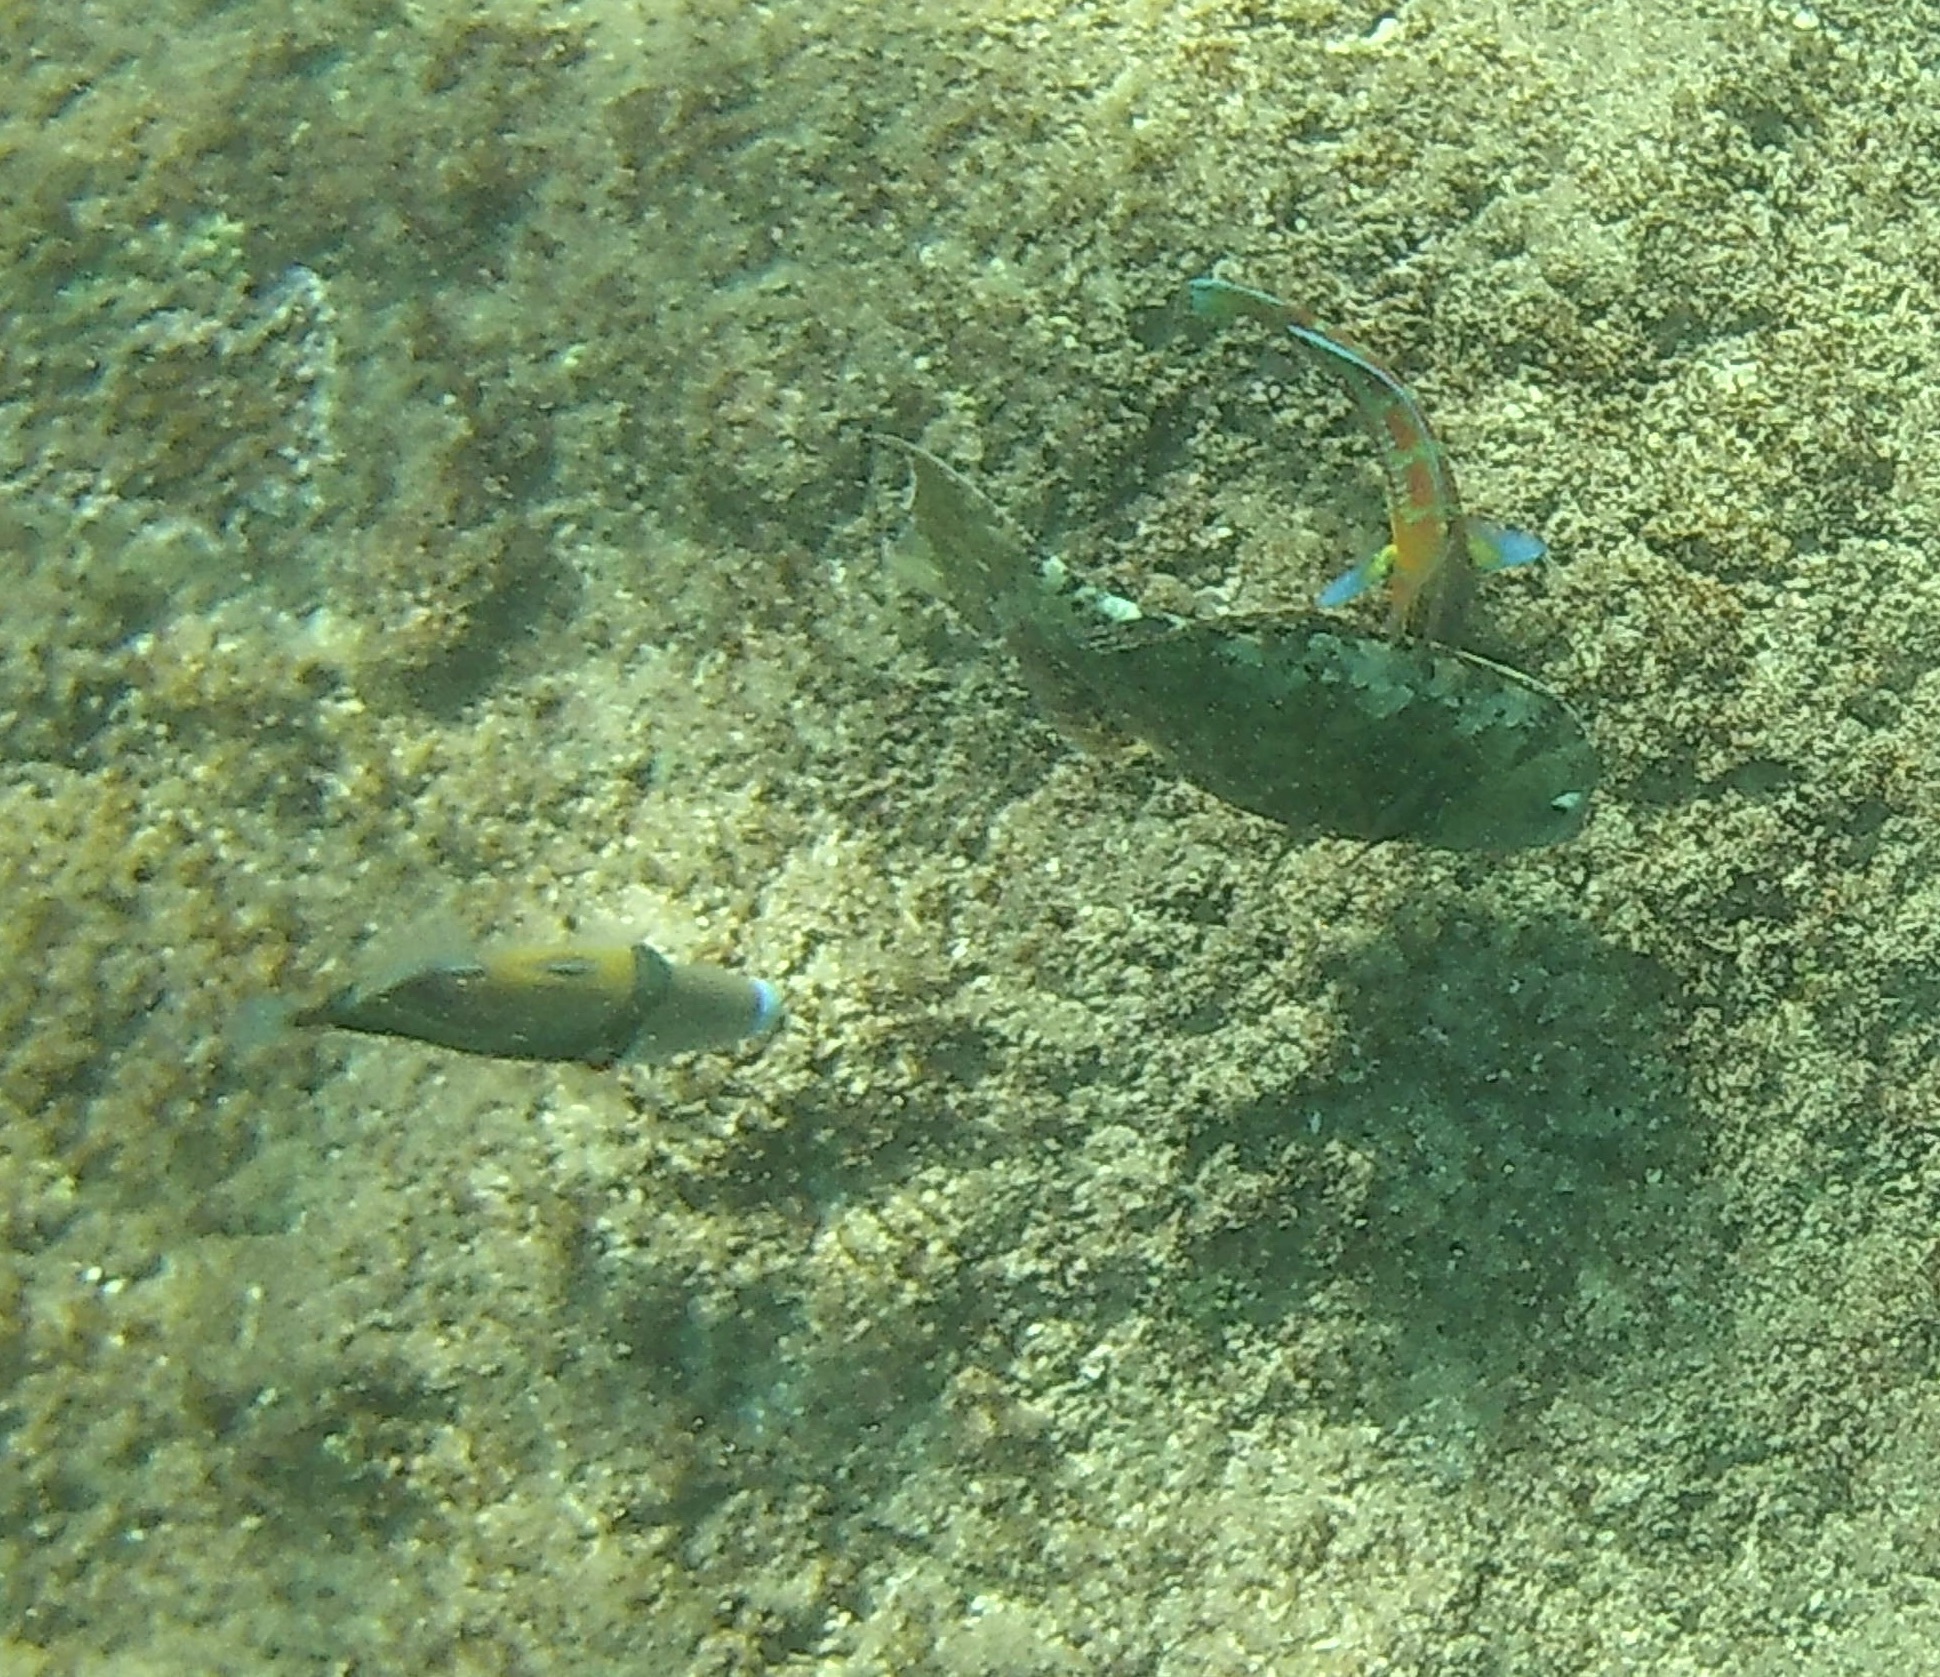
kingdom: Animalia
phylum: Chordata
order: Tetraodontiformes
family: Balistidae
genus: Rhinecanthus
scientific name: Rhinecanthus rectangulus
